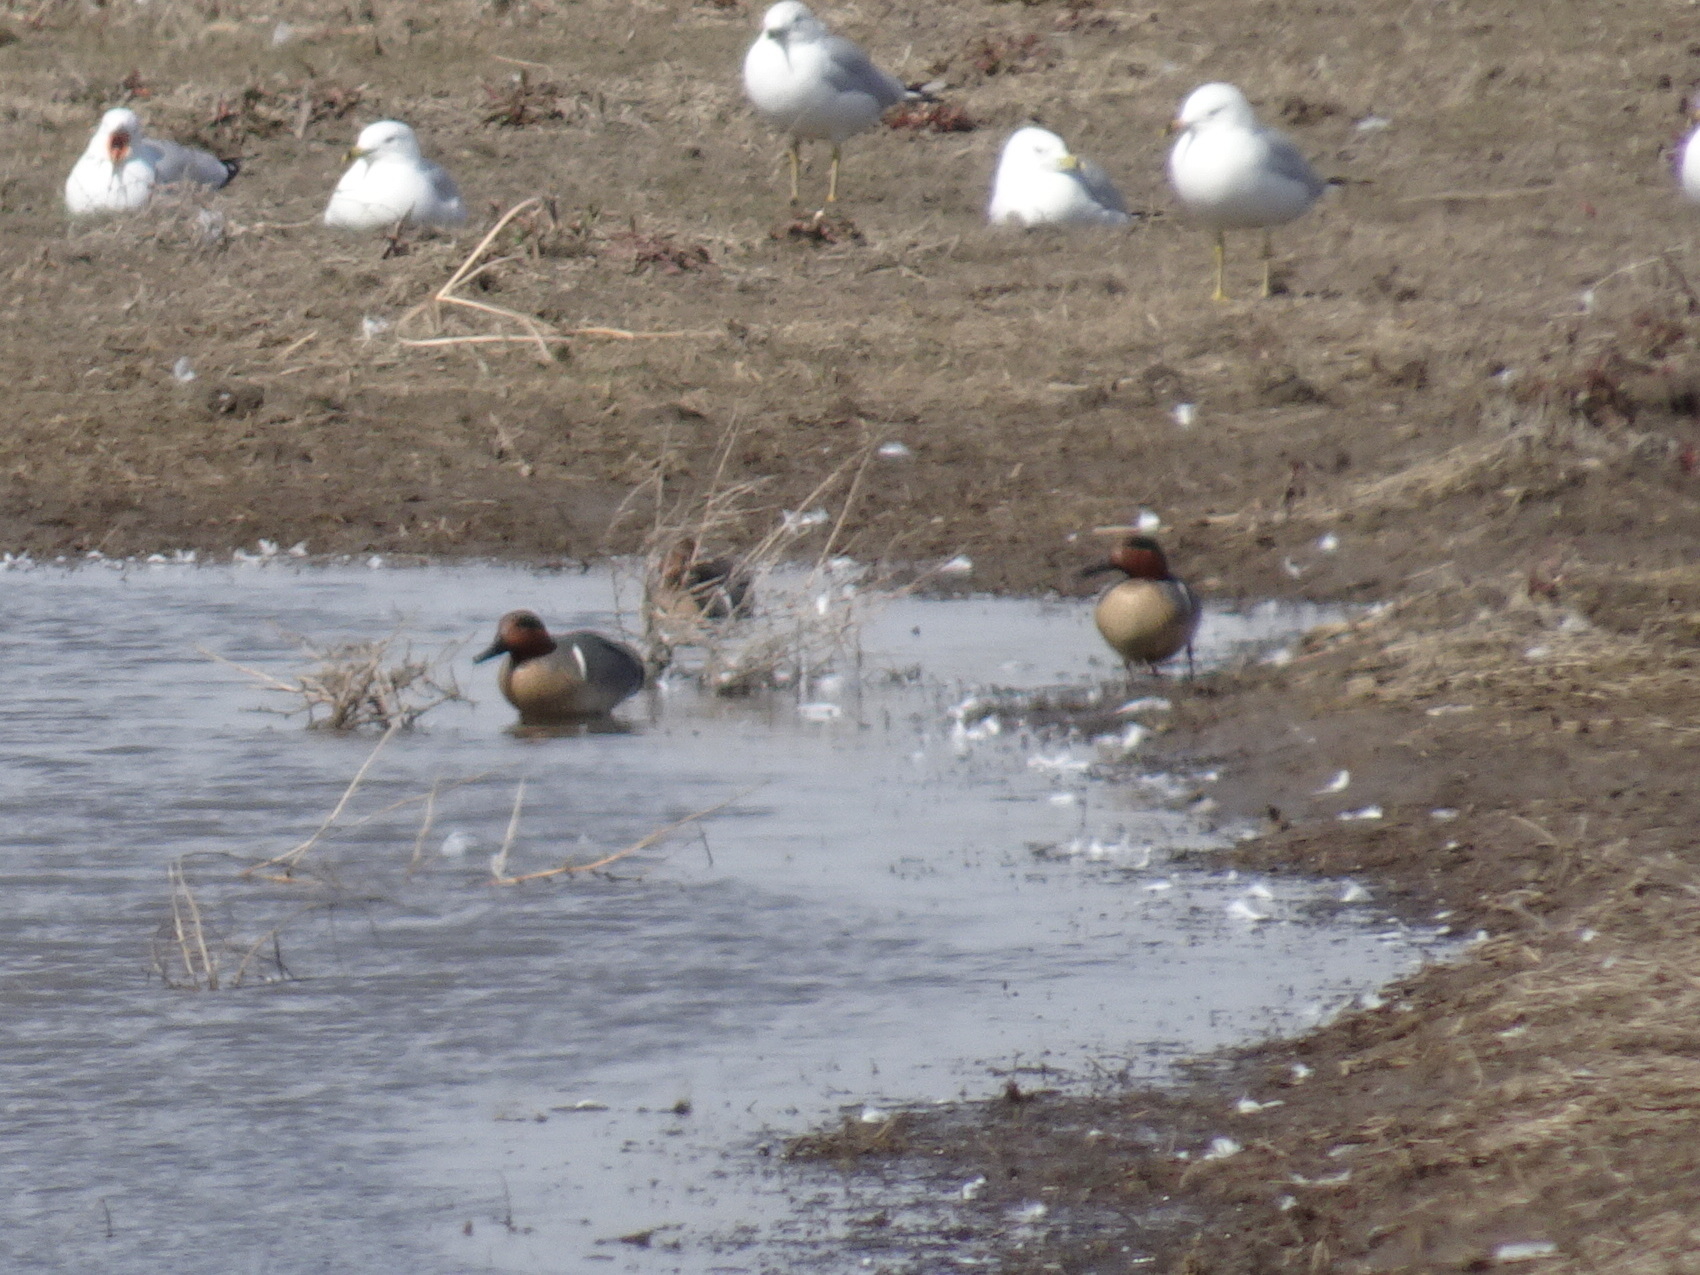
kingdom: Animalia
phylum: Chordata
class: Aves
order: Anseriformes
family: Anatidae
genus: Anas
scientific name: Anas crecca
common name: Eurasian teal
